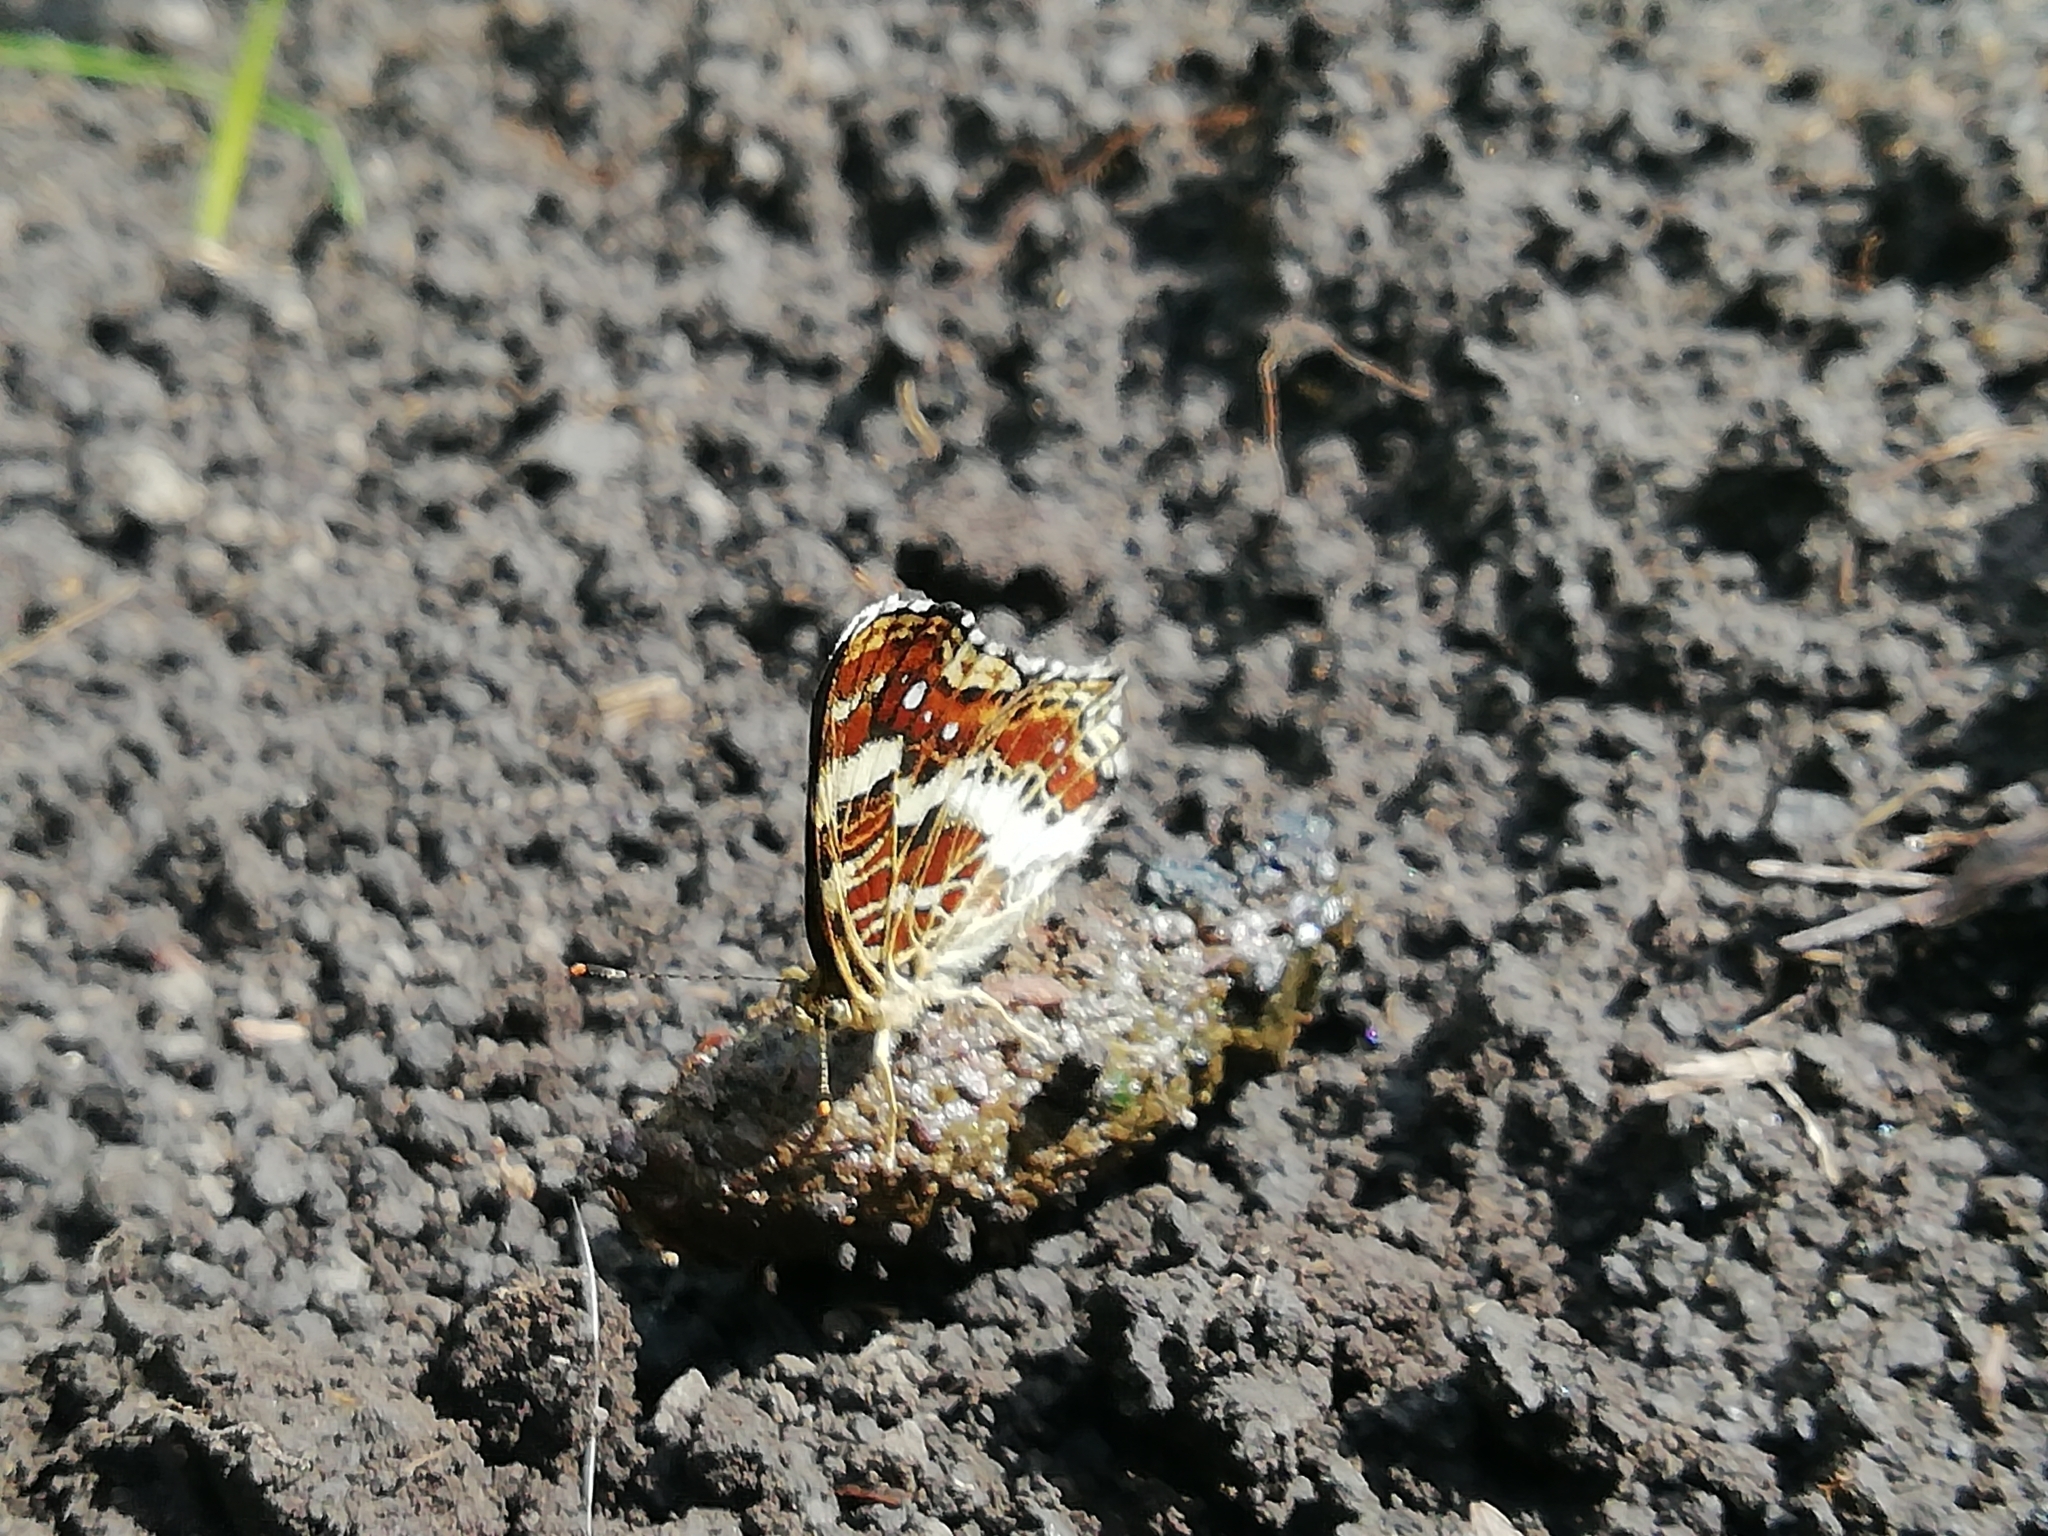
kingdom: Animalia
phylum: Arthropoda
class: Insecta
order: Lepidoptera
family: Nymphalidae
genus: Araschnia
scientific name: Araschnia levana
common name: Map butterfly
